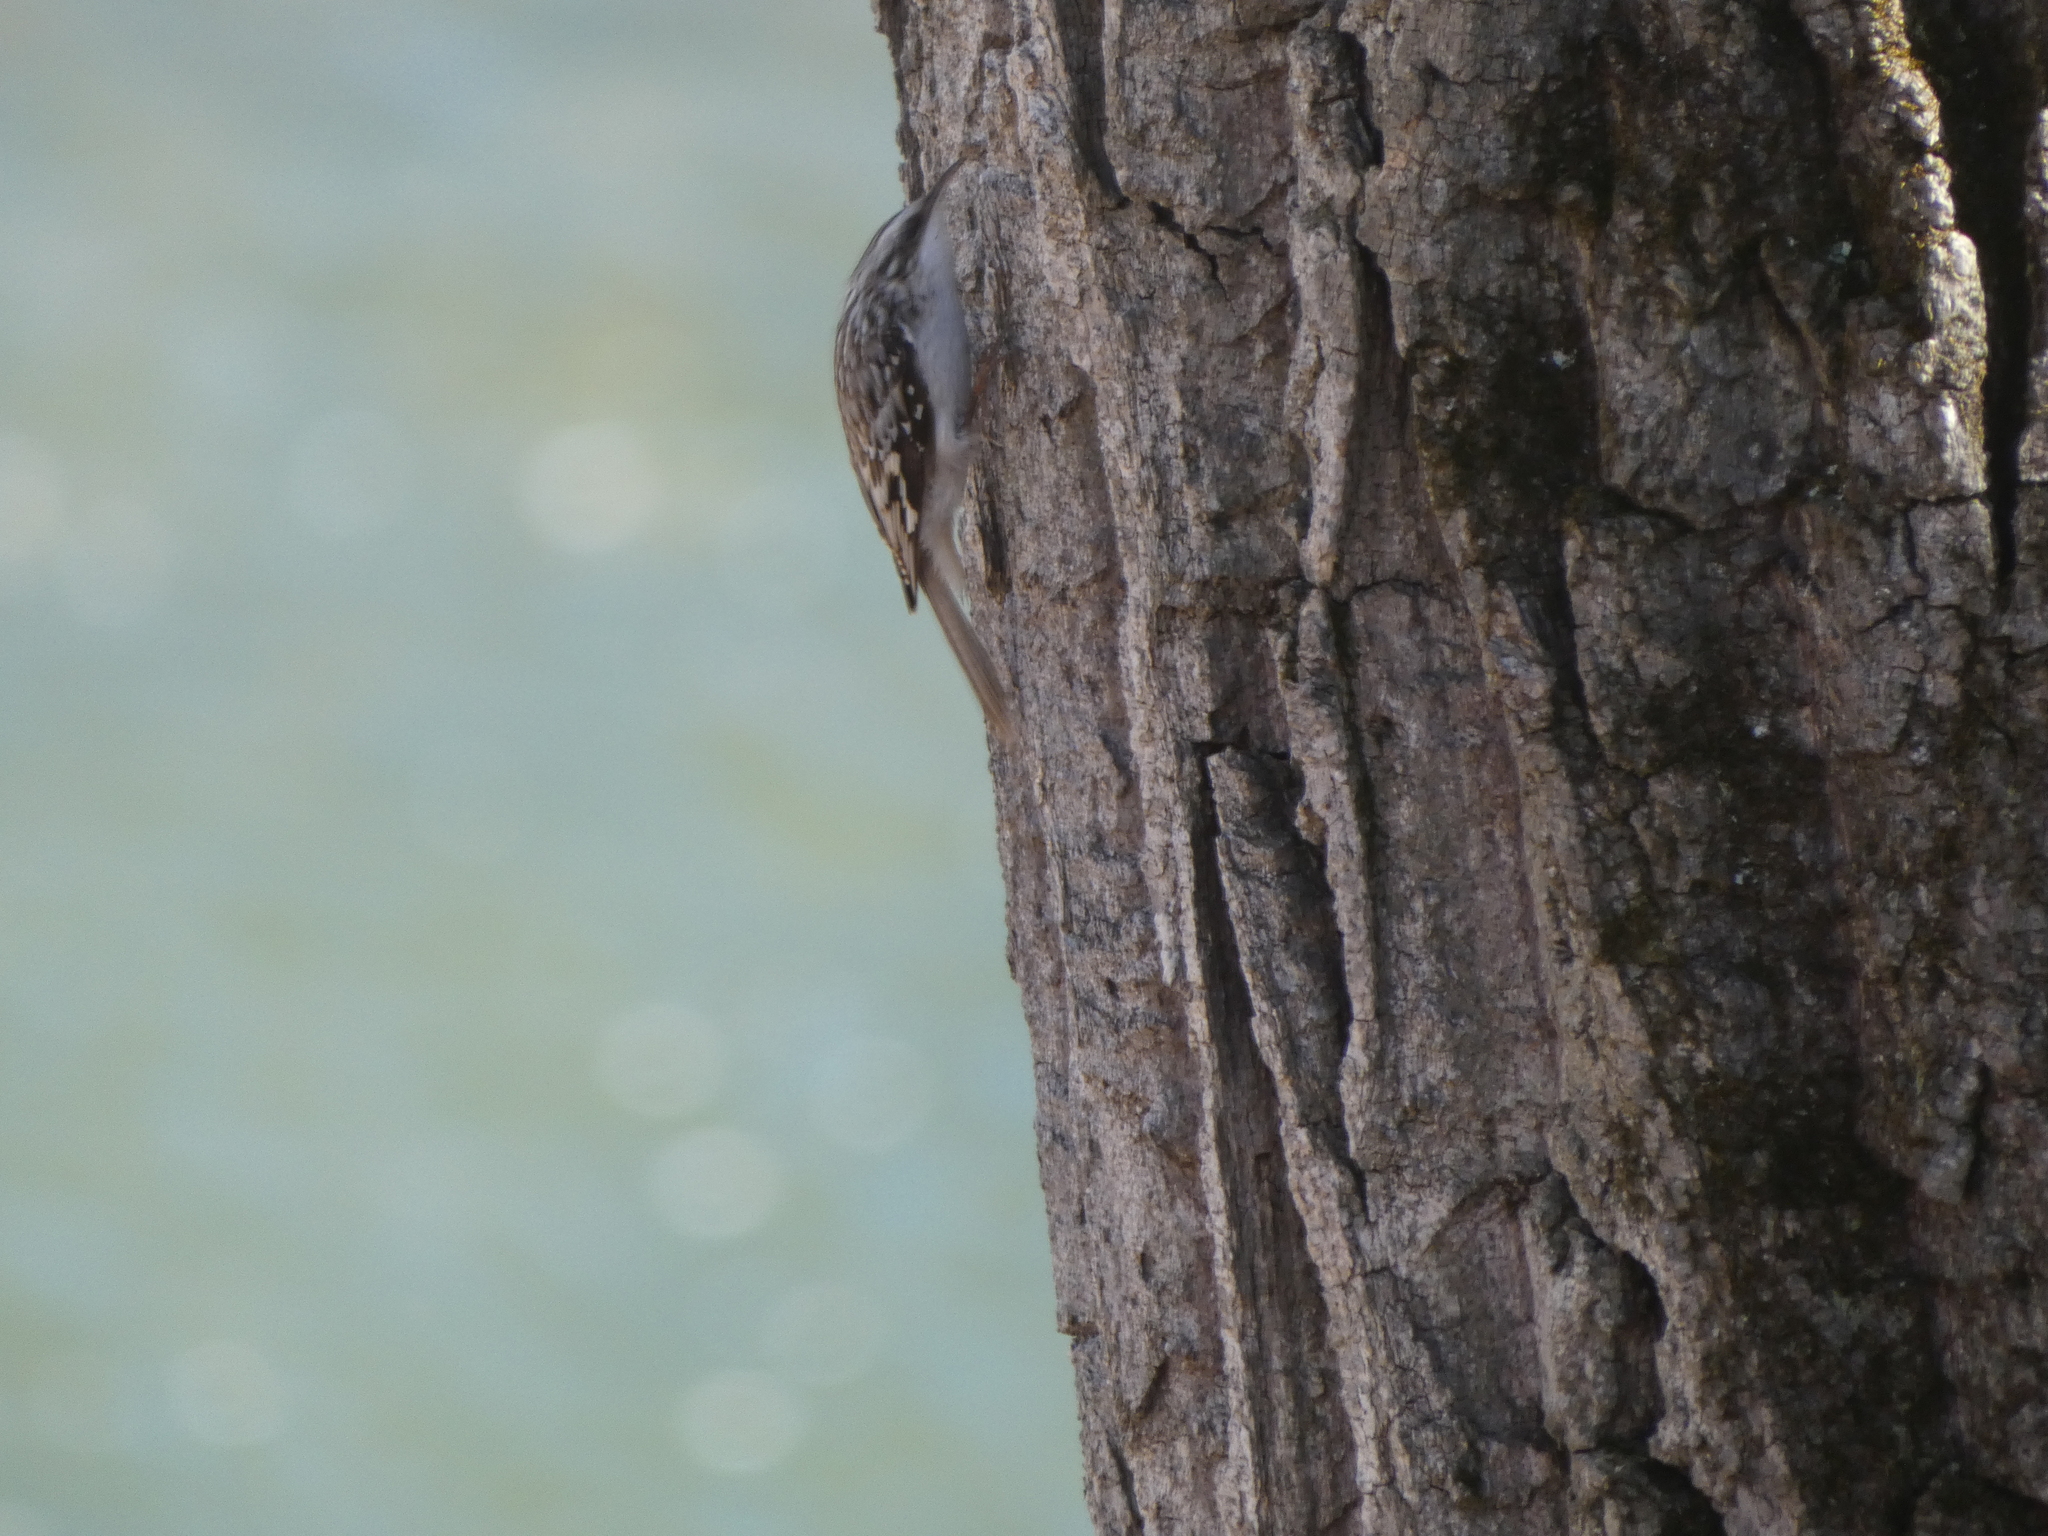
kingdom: Animalia
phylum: Chordata
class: Aves
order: Passeriformes
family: Certhiidae
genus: Certhia
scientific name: Certhia americana
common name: Brown creeper
